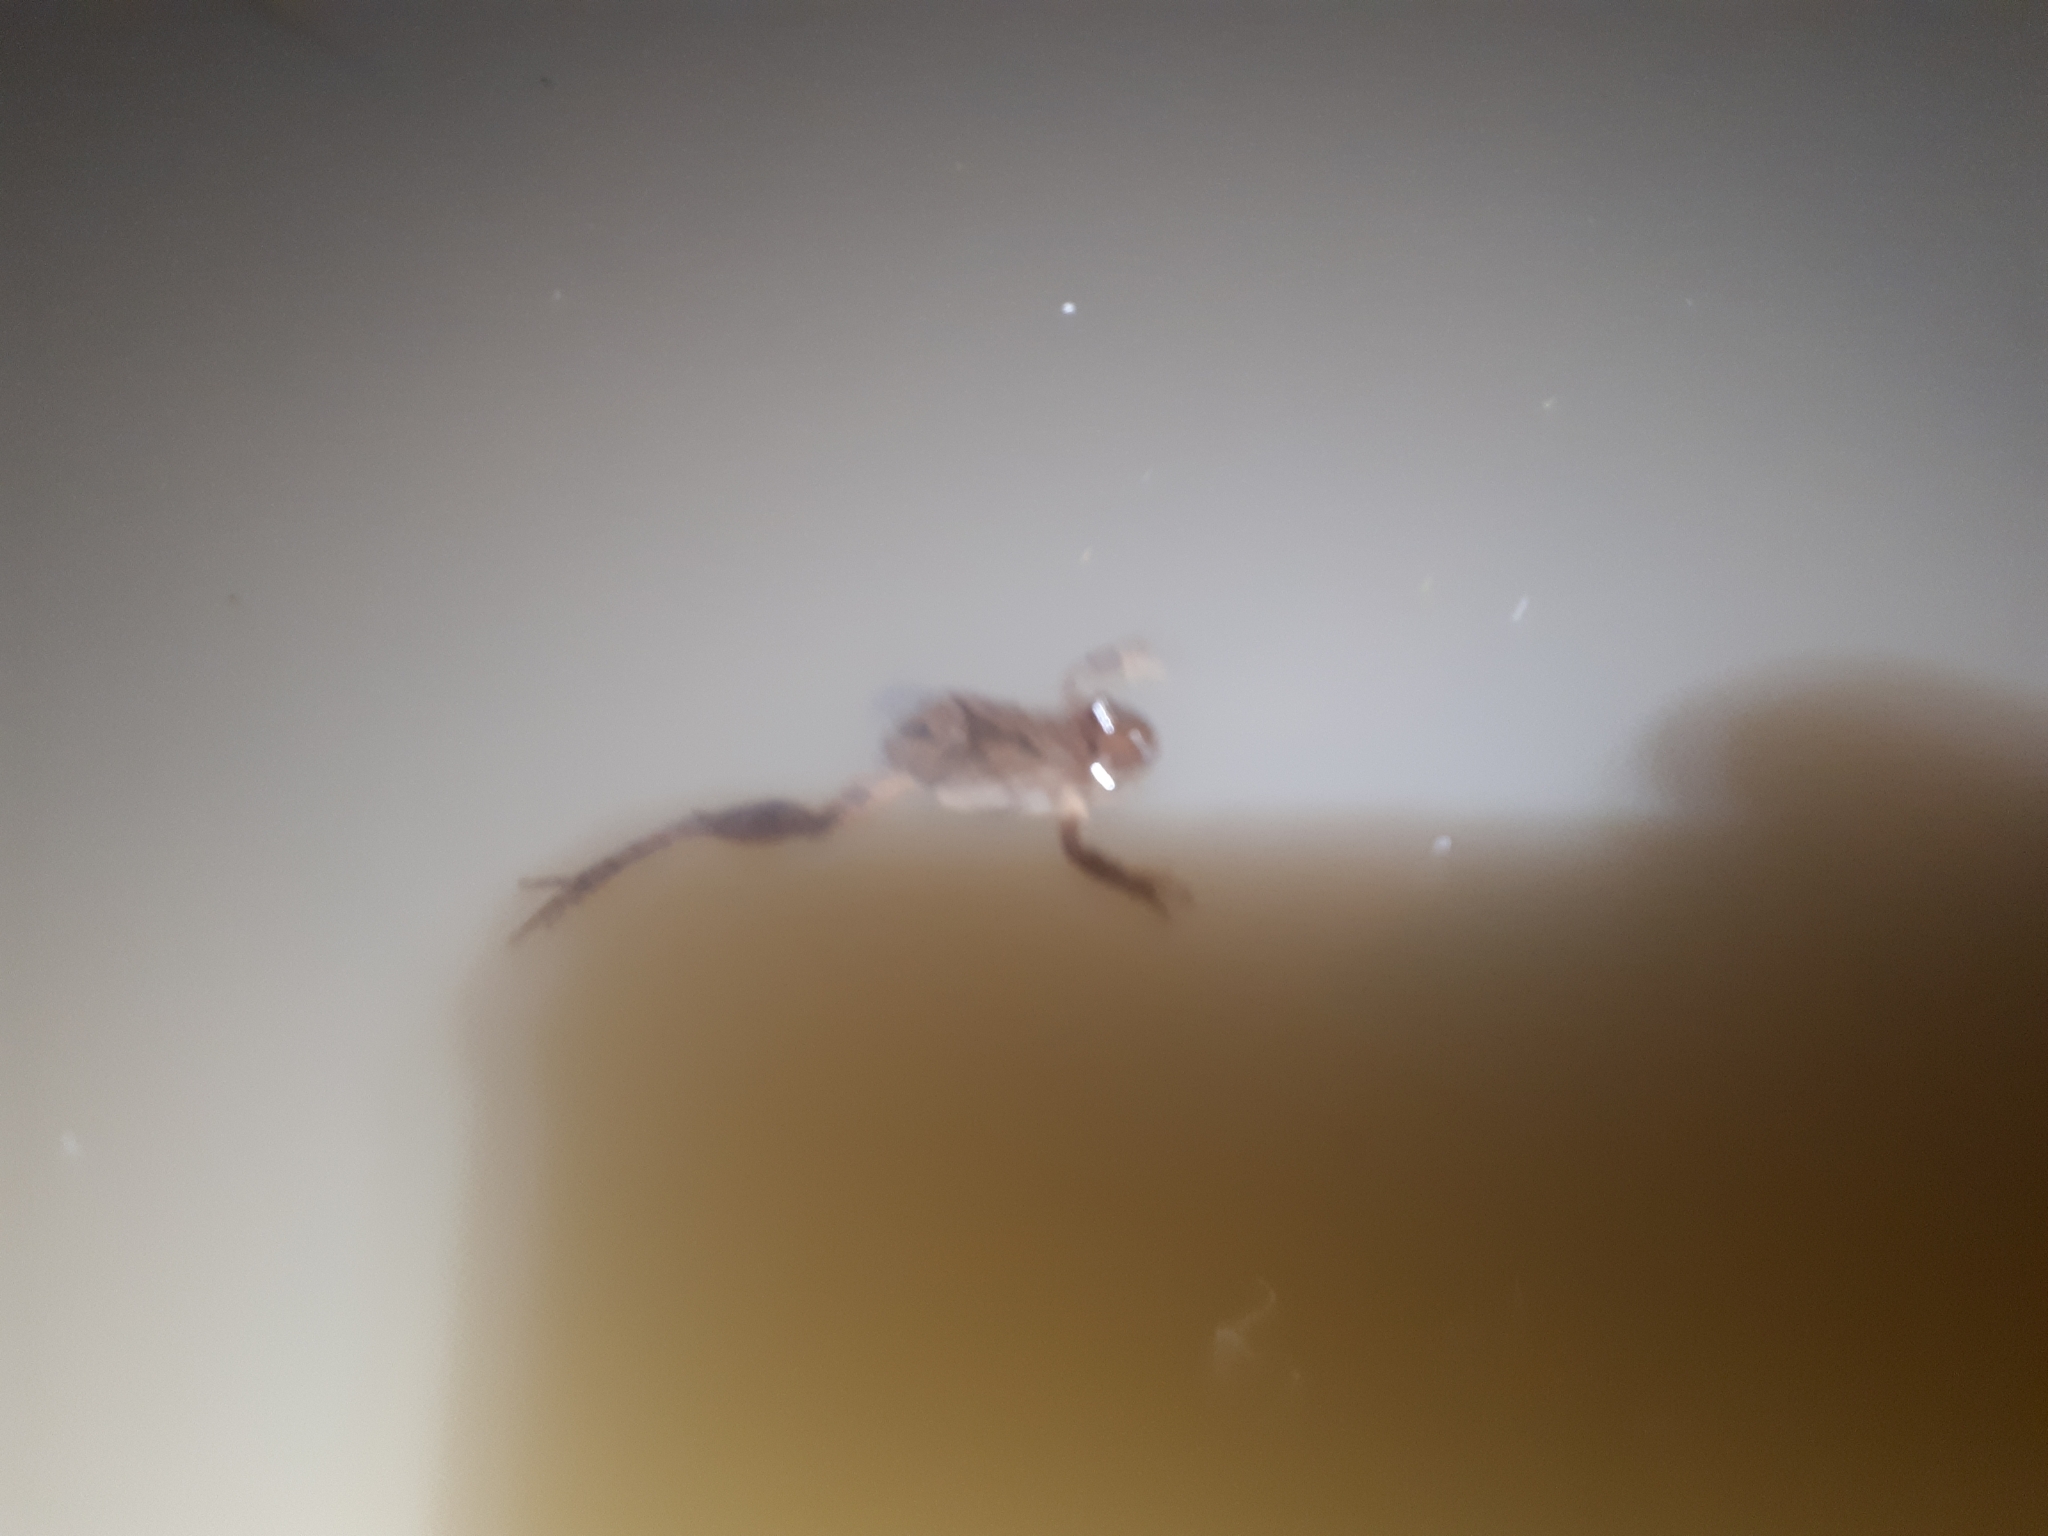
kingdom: Animalia
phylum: Chordata
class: Amphibia
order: Anura
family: Hylidae
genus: Pseudacris
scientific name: Pseudacris crucifer
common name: Spring peeper
